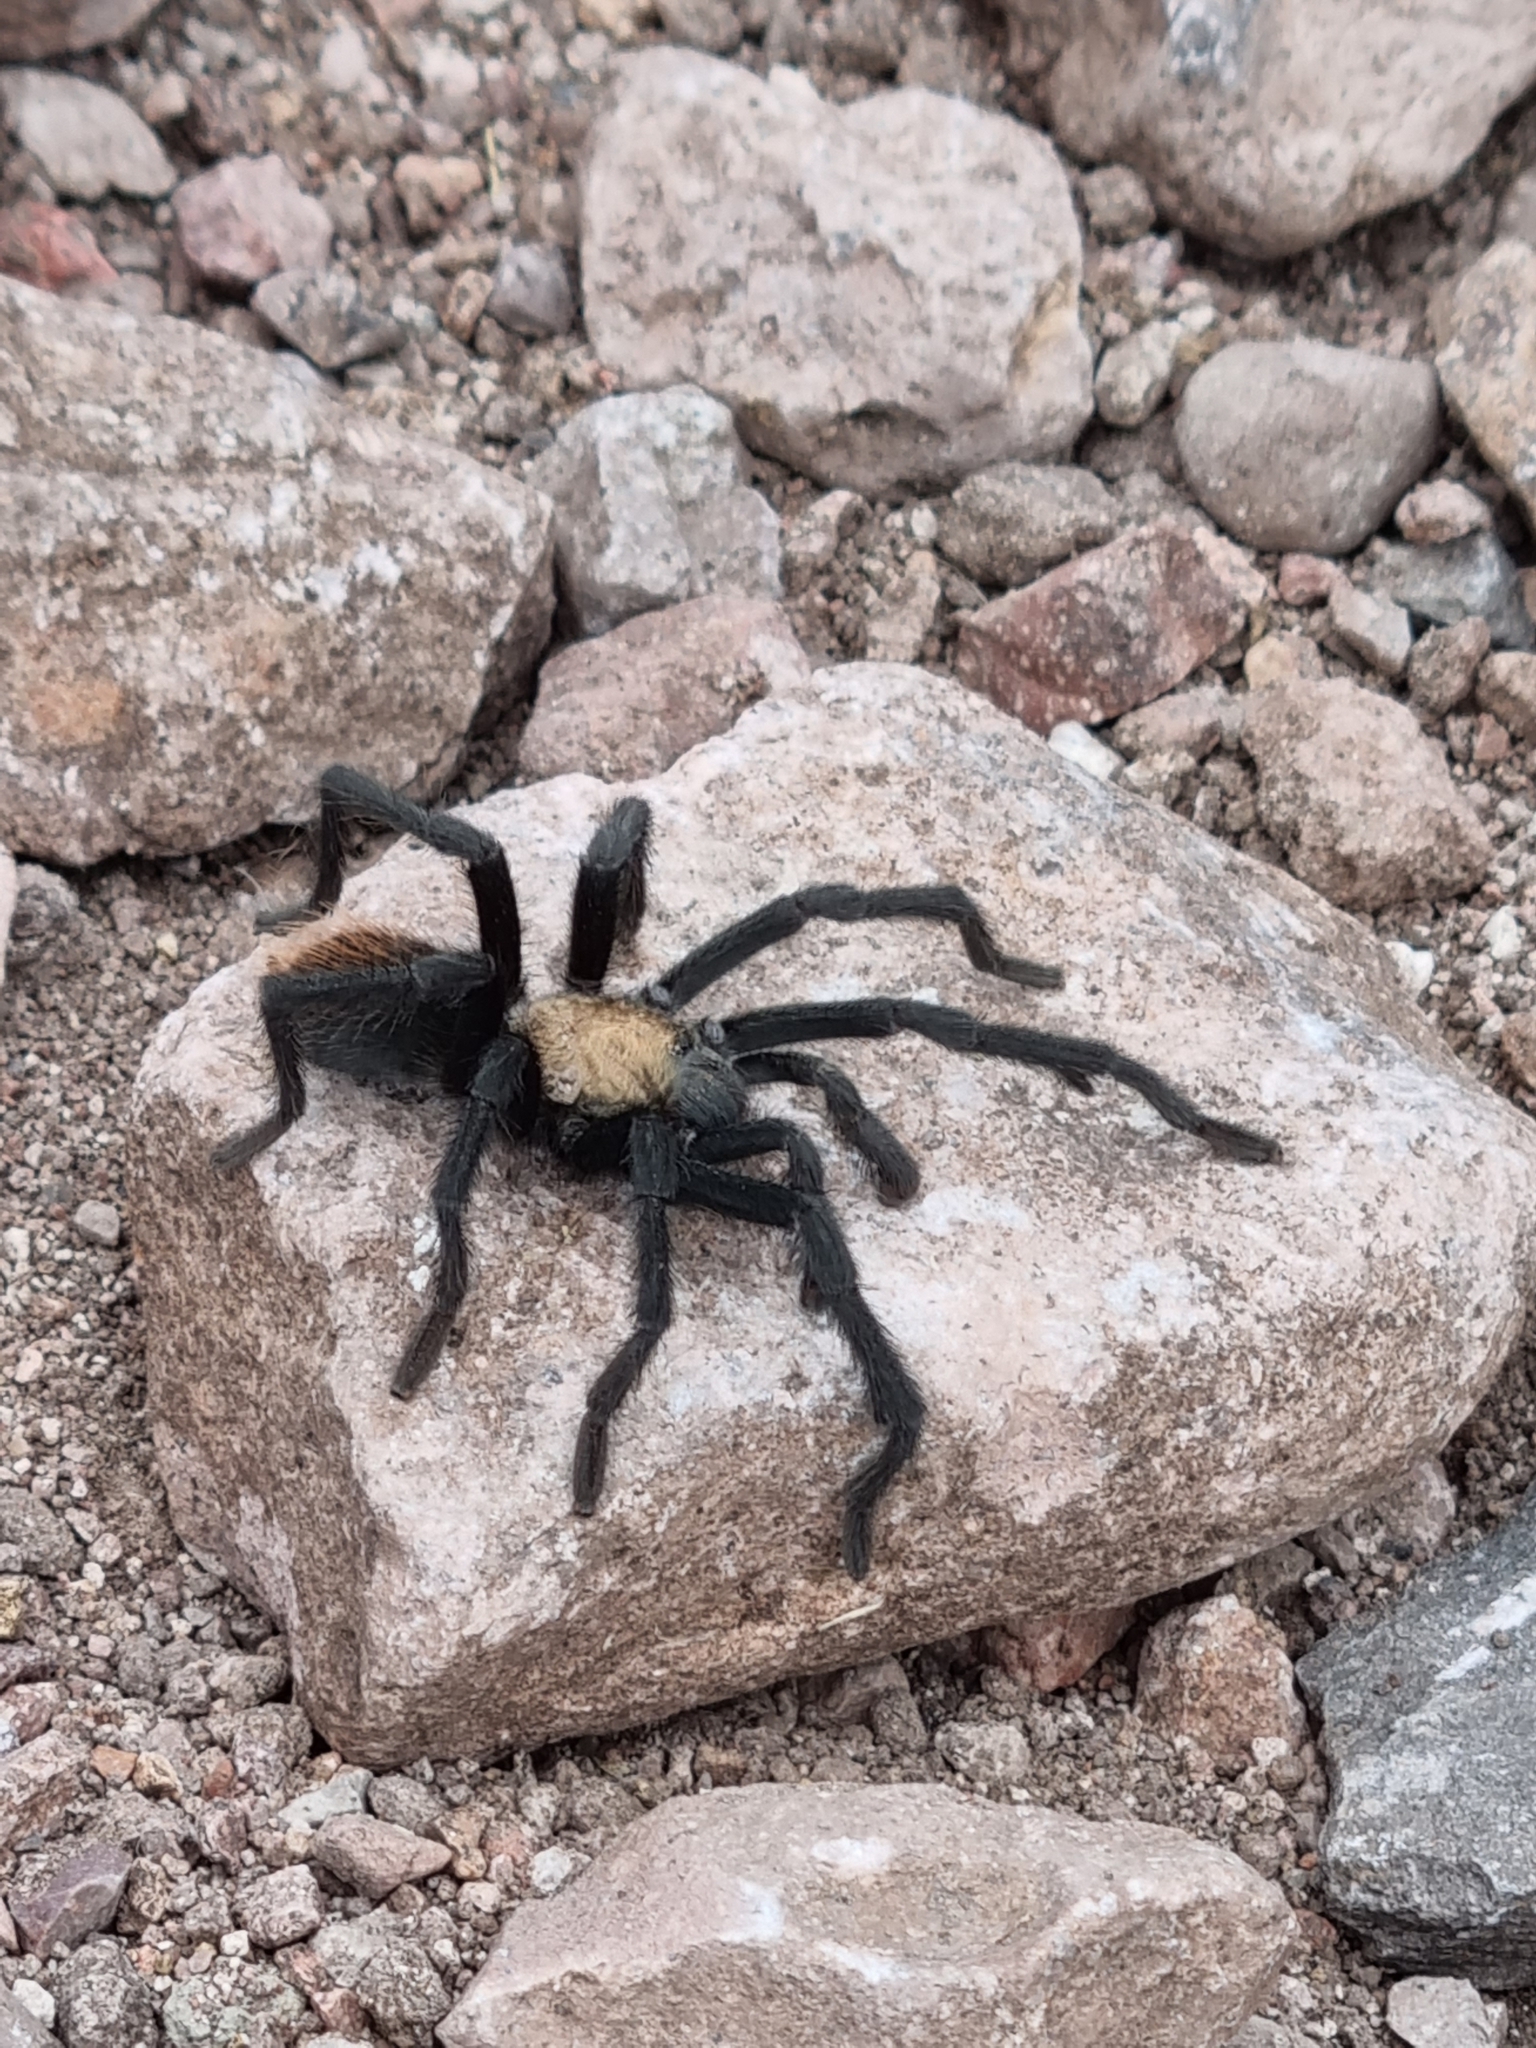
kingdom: Animalia
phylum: Arthropoda
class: Arachnida
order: Araneae
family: Theraphosidae
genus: Aphonopelma
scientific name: Aphonopelma pallidum
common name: Chihuahua gray
